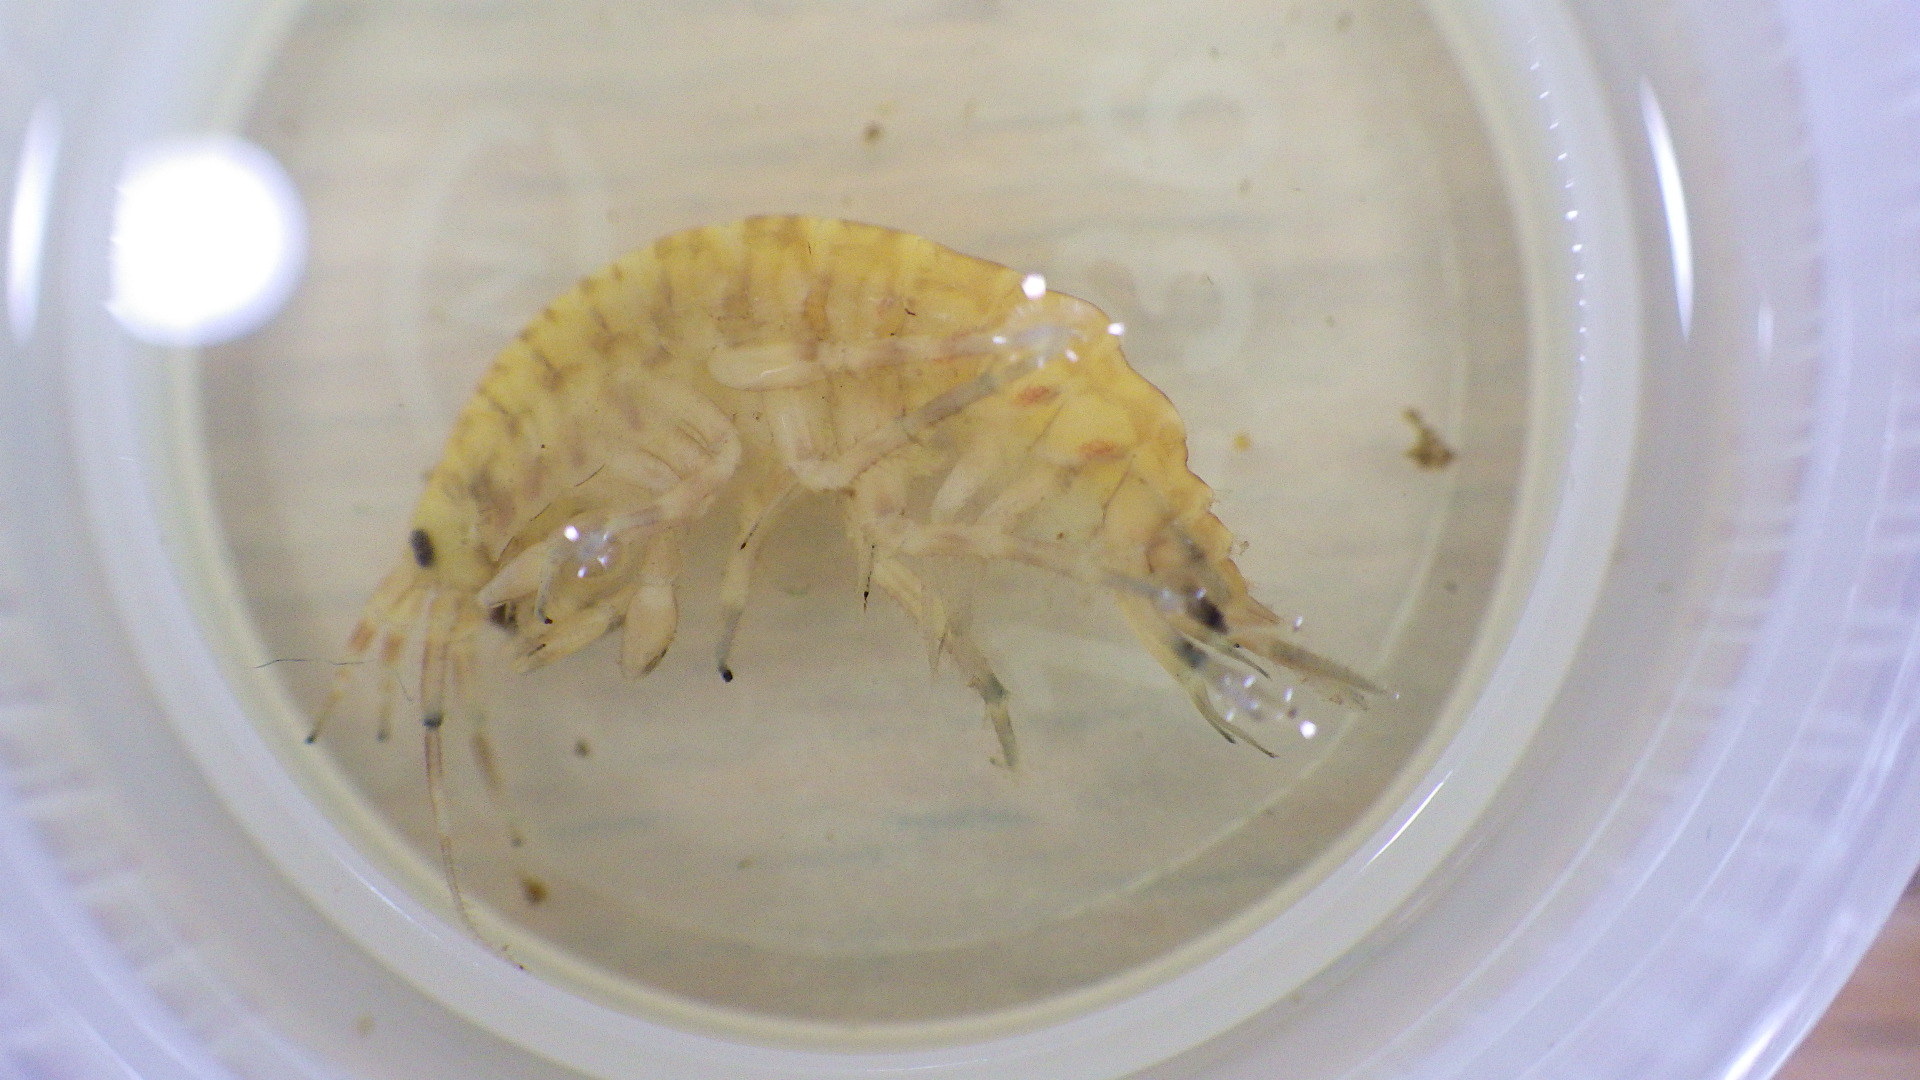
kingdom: Animalia
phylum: Arthropoda
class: Malacostraca
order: Amphipoda
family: Gammaridae
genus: Gammarus
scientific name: Gammarus fasciatus
